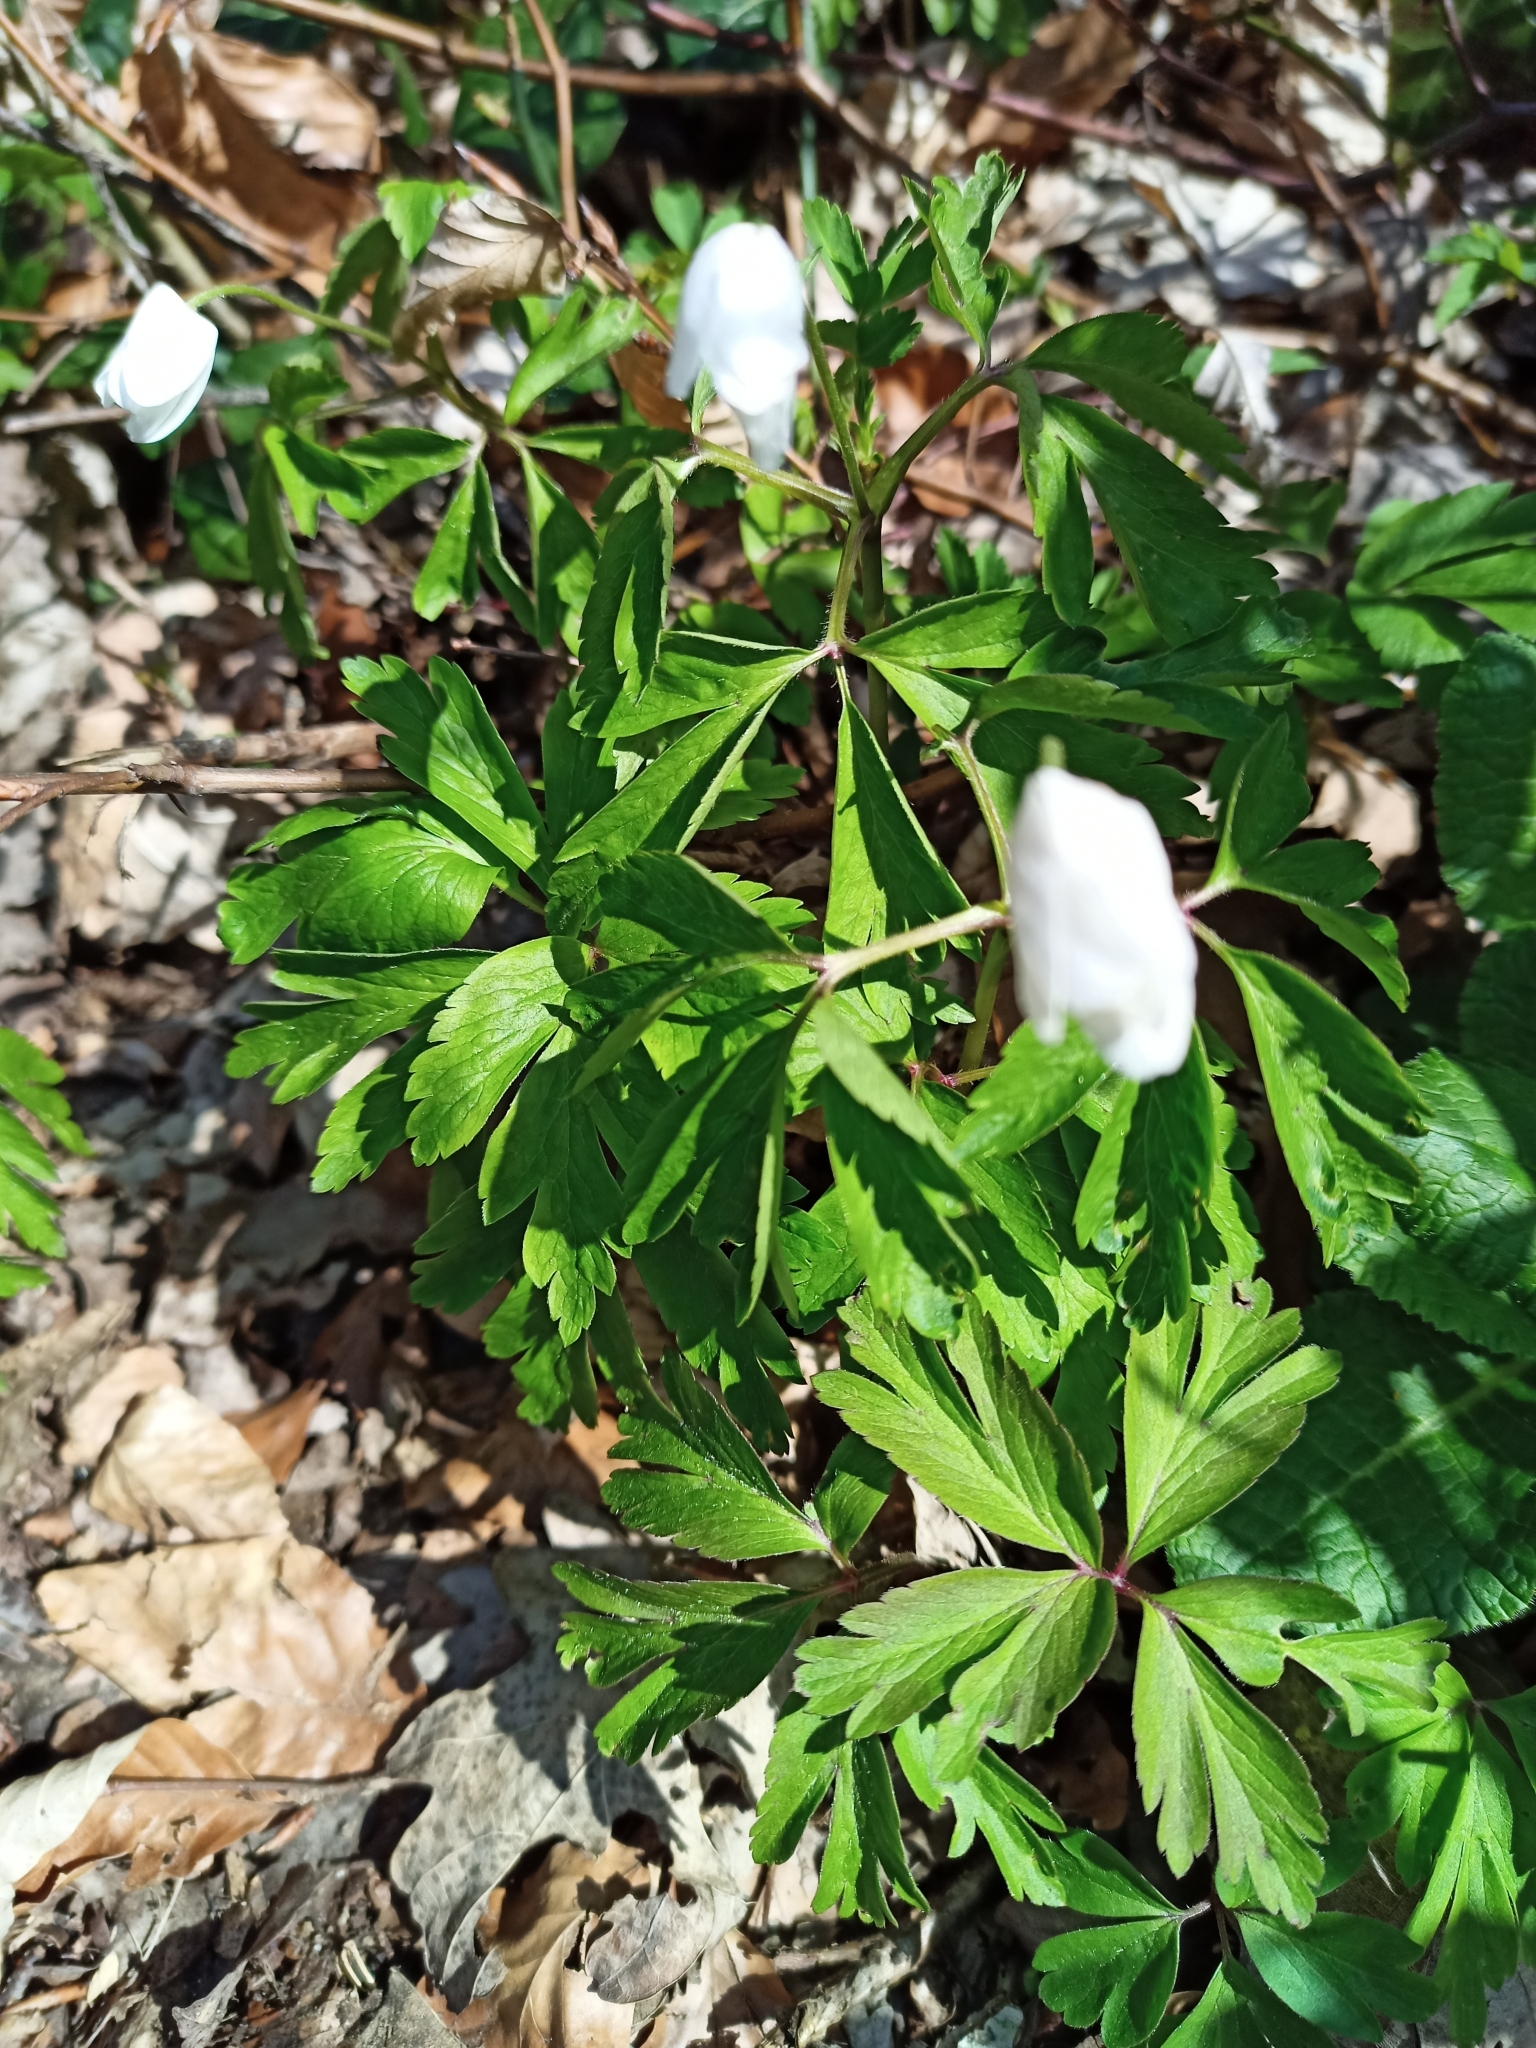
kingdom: Plantae
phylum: Tracheophyta
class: Magnoliopsida
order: Ranunculales
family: Ranunculaceae
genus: Anemone
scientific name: Anemone nemorosa
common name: Wood anemone
